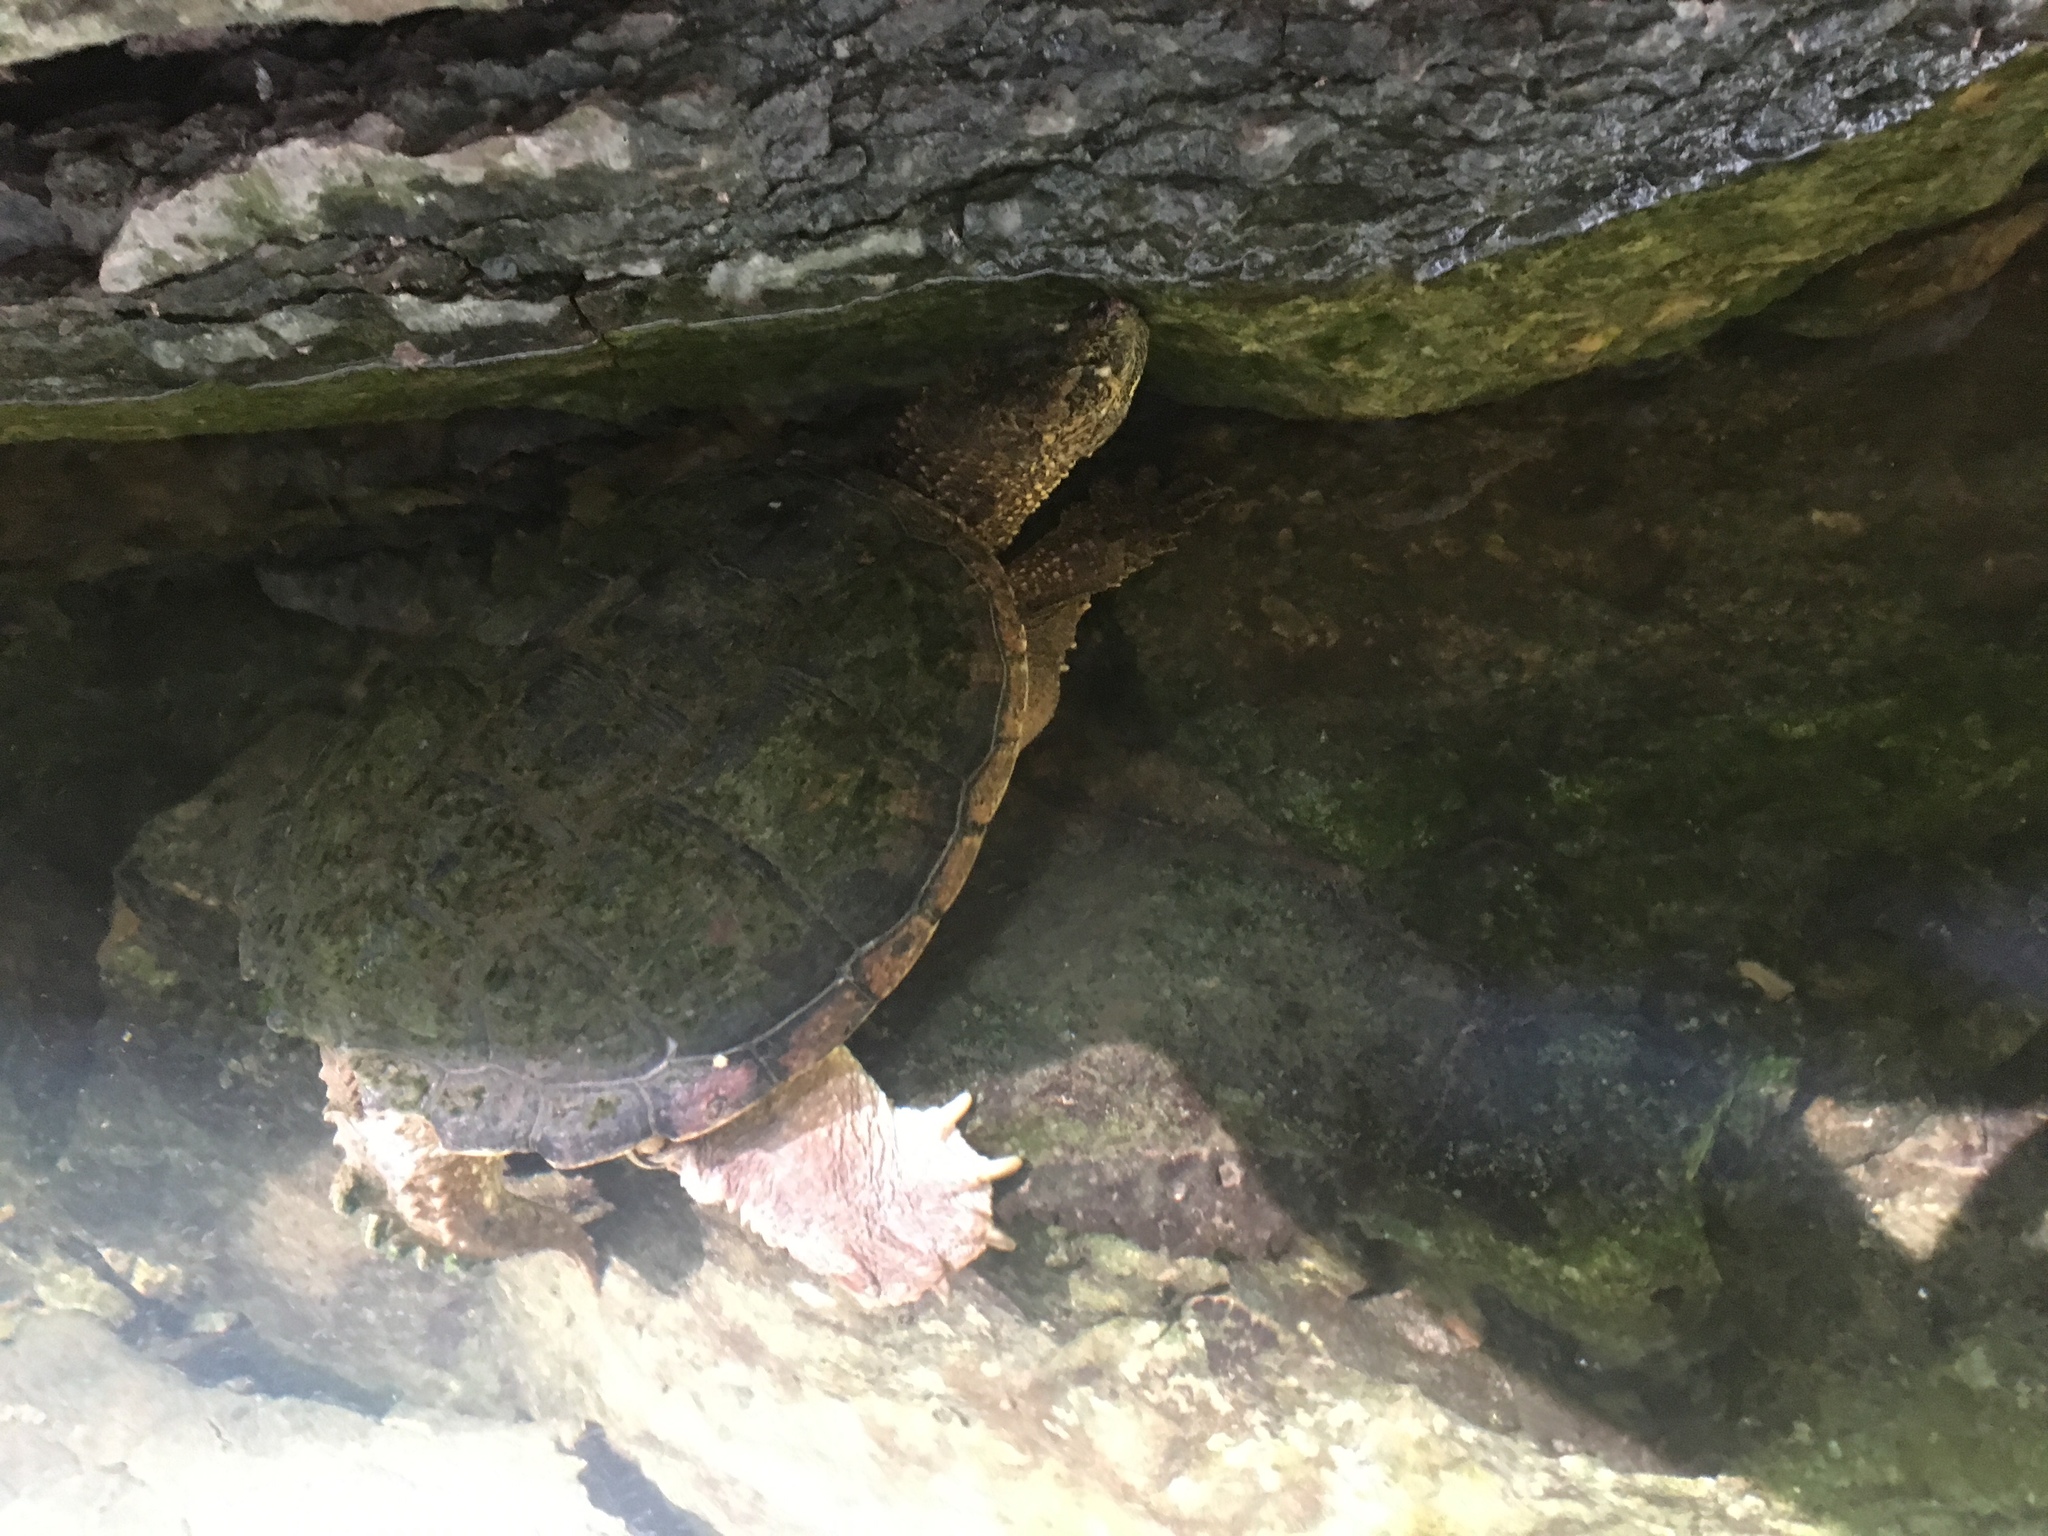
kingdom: Animalia
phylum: Chordata
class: Testudines
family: Chelydridae
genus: Chelydra
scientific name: Chelydra serpentina
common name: Common snapping turtle
